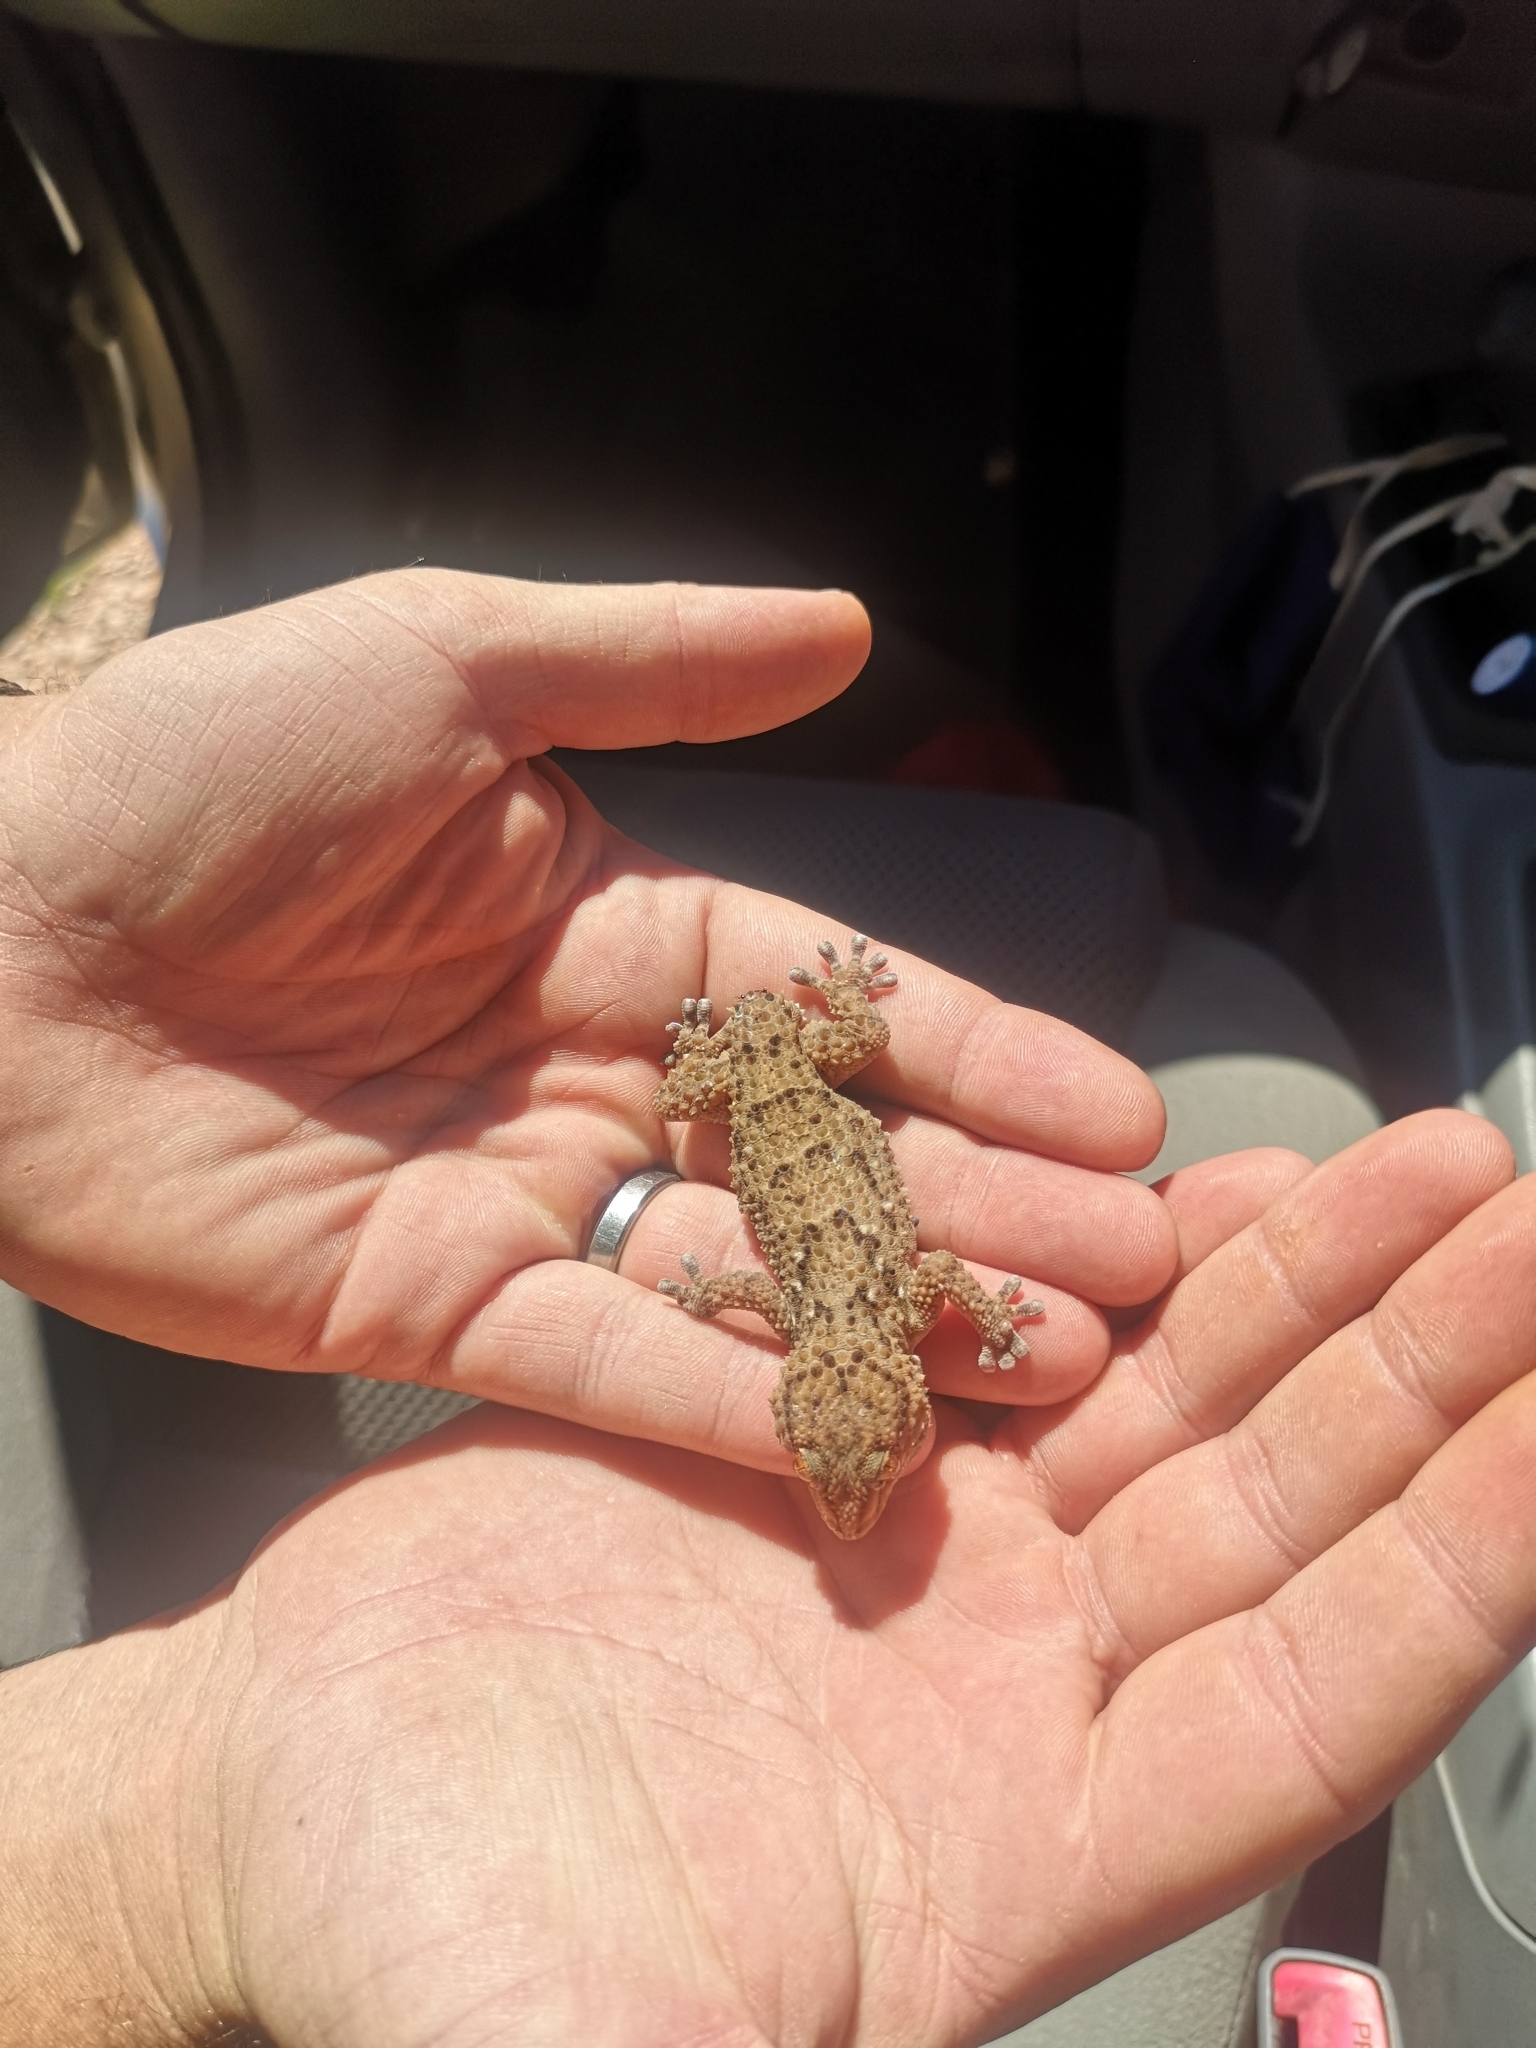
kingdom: Animalia
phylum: Chordata
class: Squamata
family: Gekkonidae
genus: Chondrodactylus
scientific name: Chondrodactylus bibronii
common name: Bibron's gecko
